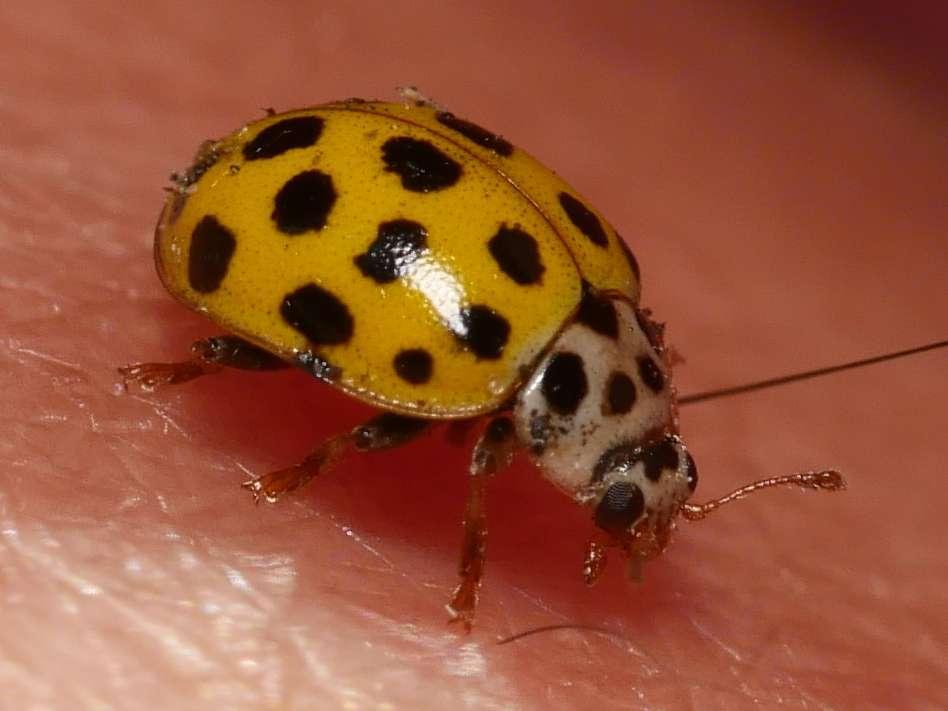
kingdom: Animalia
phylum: Arthropoda
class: Insecta
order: Coleoptera
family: Coccinellidae
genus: Psyllobora
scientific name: Psyllobora vigintiduopunctata
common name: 22-spot ladybird
